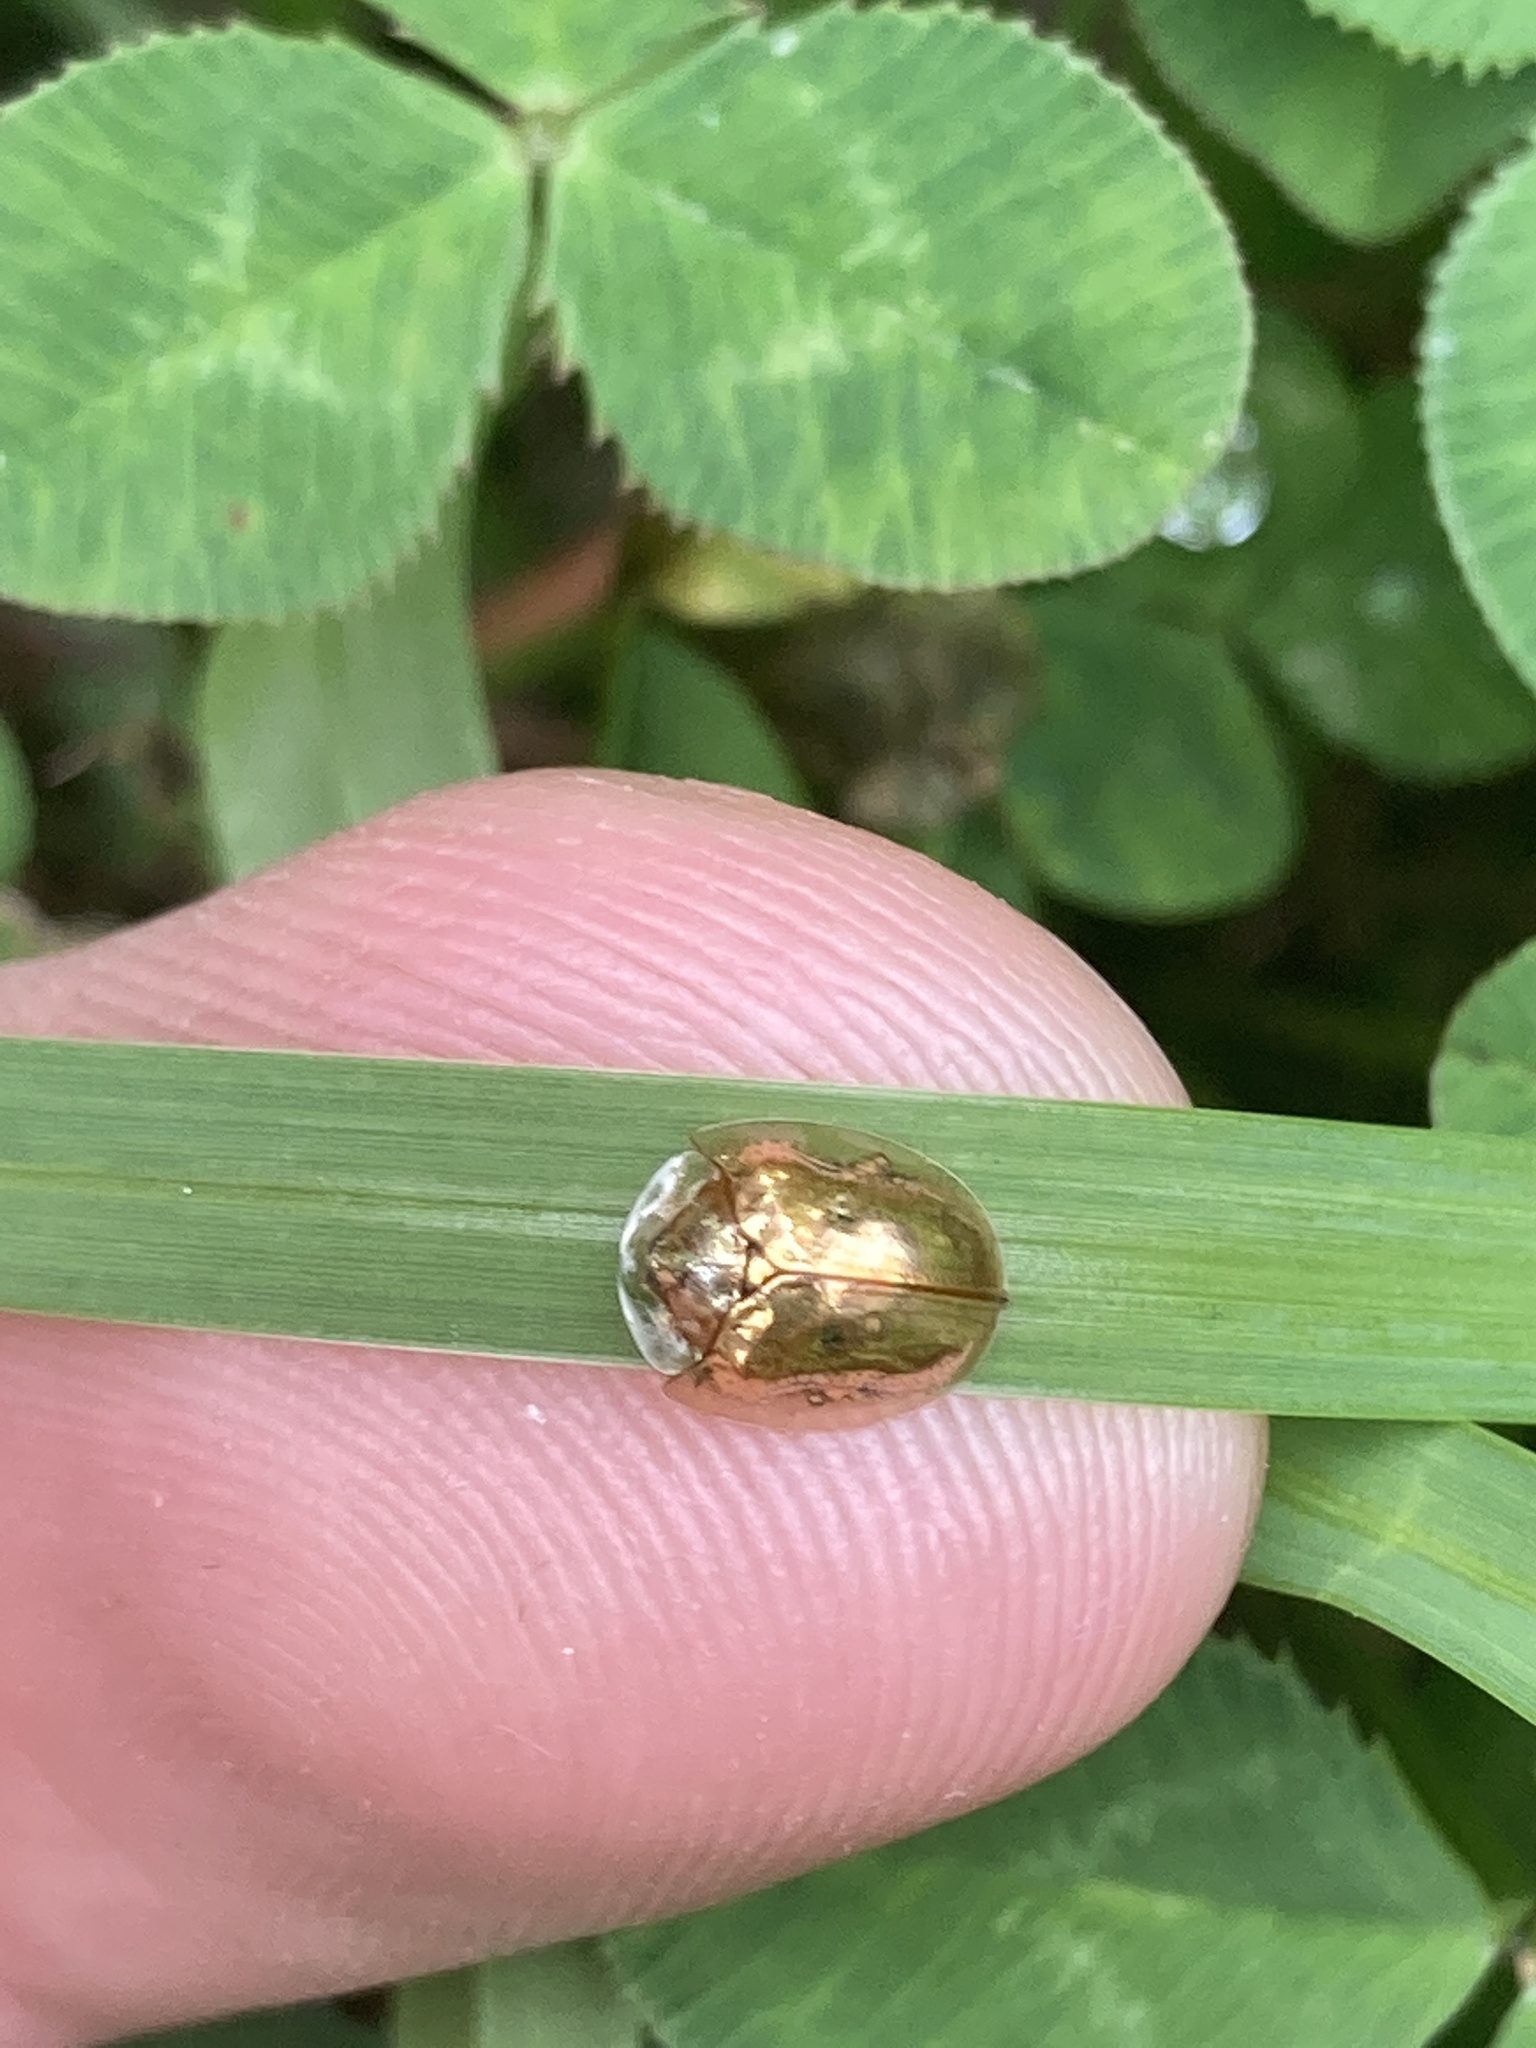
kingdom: Animalia
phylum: Arthropoda
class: Insecta
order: Coleoptera
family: Chrysomelidae
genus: Charidotella
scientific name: Charidotella sexpunctata
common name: Golden tortoise beetle
